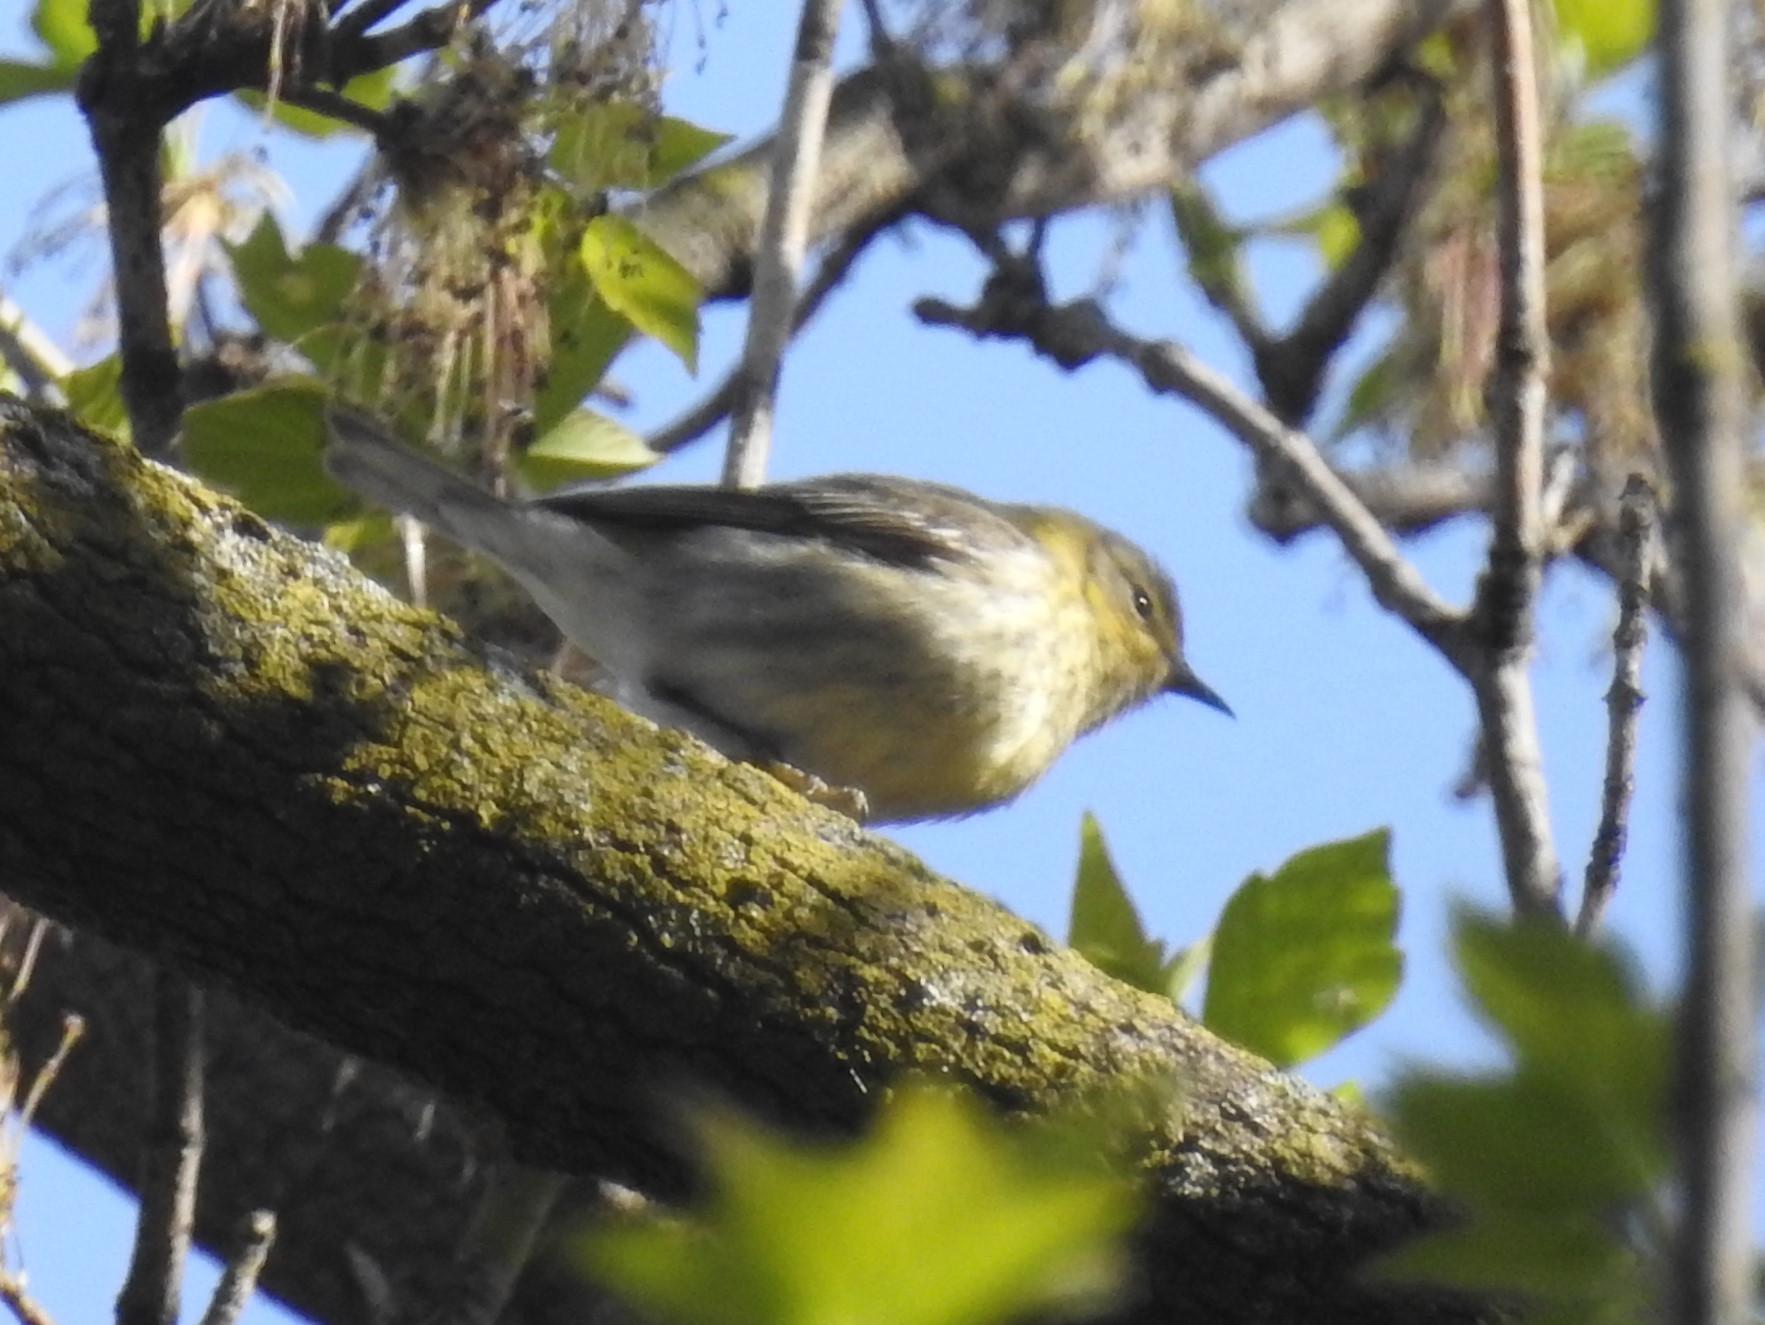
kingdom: Animalia
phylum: Chordata
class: Aves
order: Passeriformes
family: Parulidae
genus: Setophaga
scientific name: Setophaga tigrina
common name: Cape may warbler
